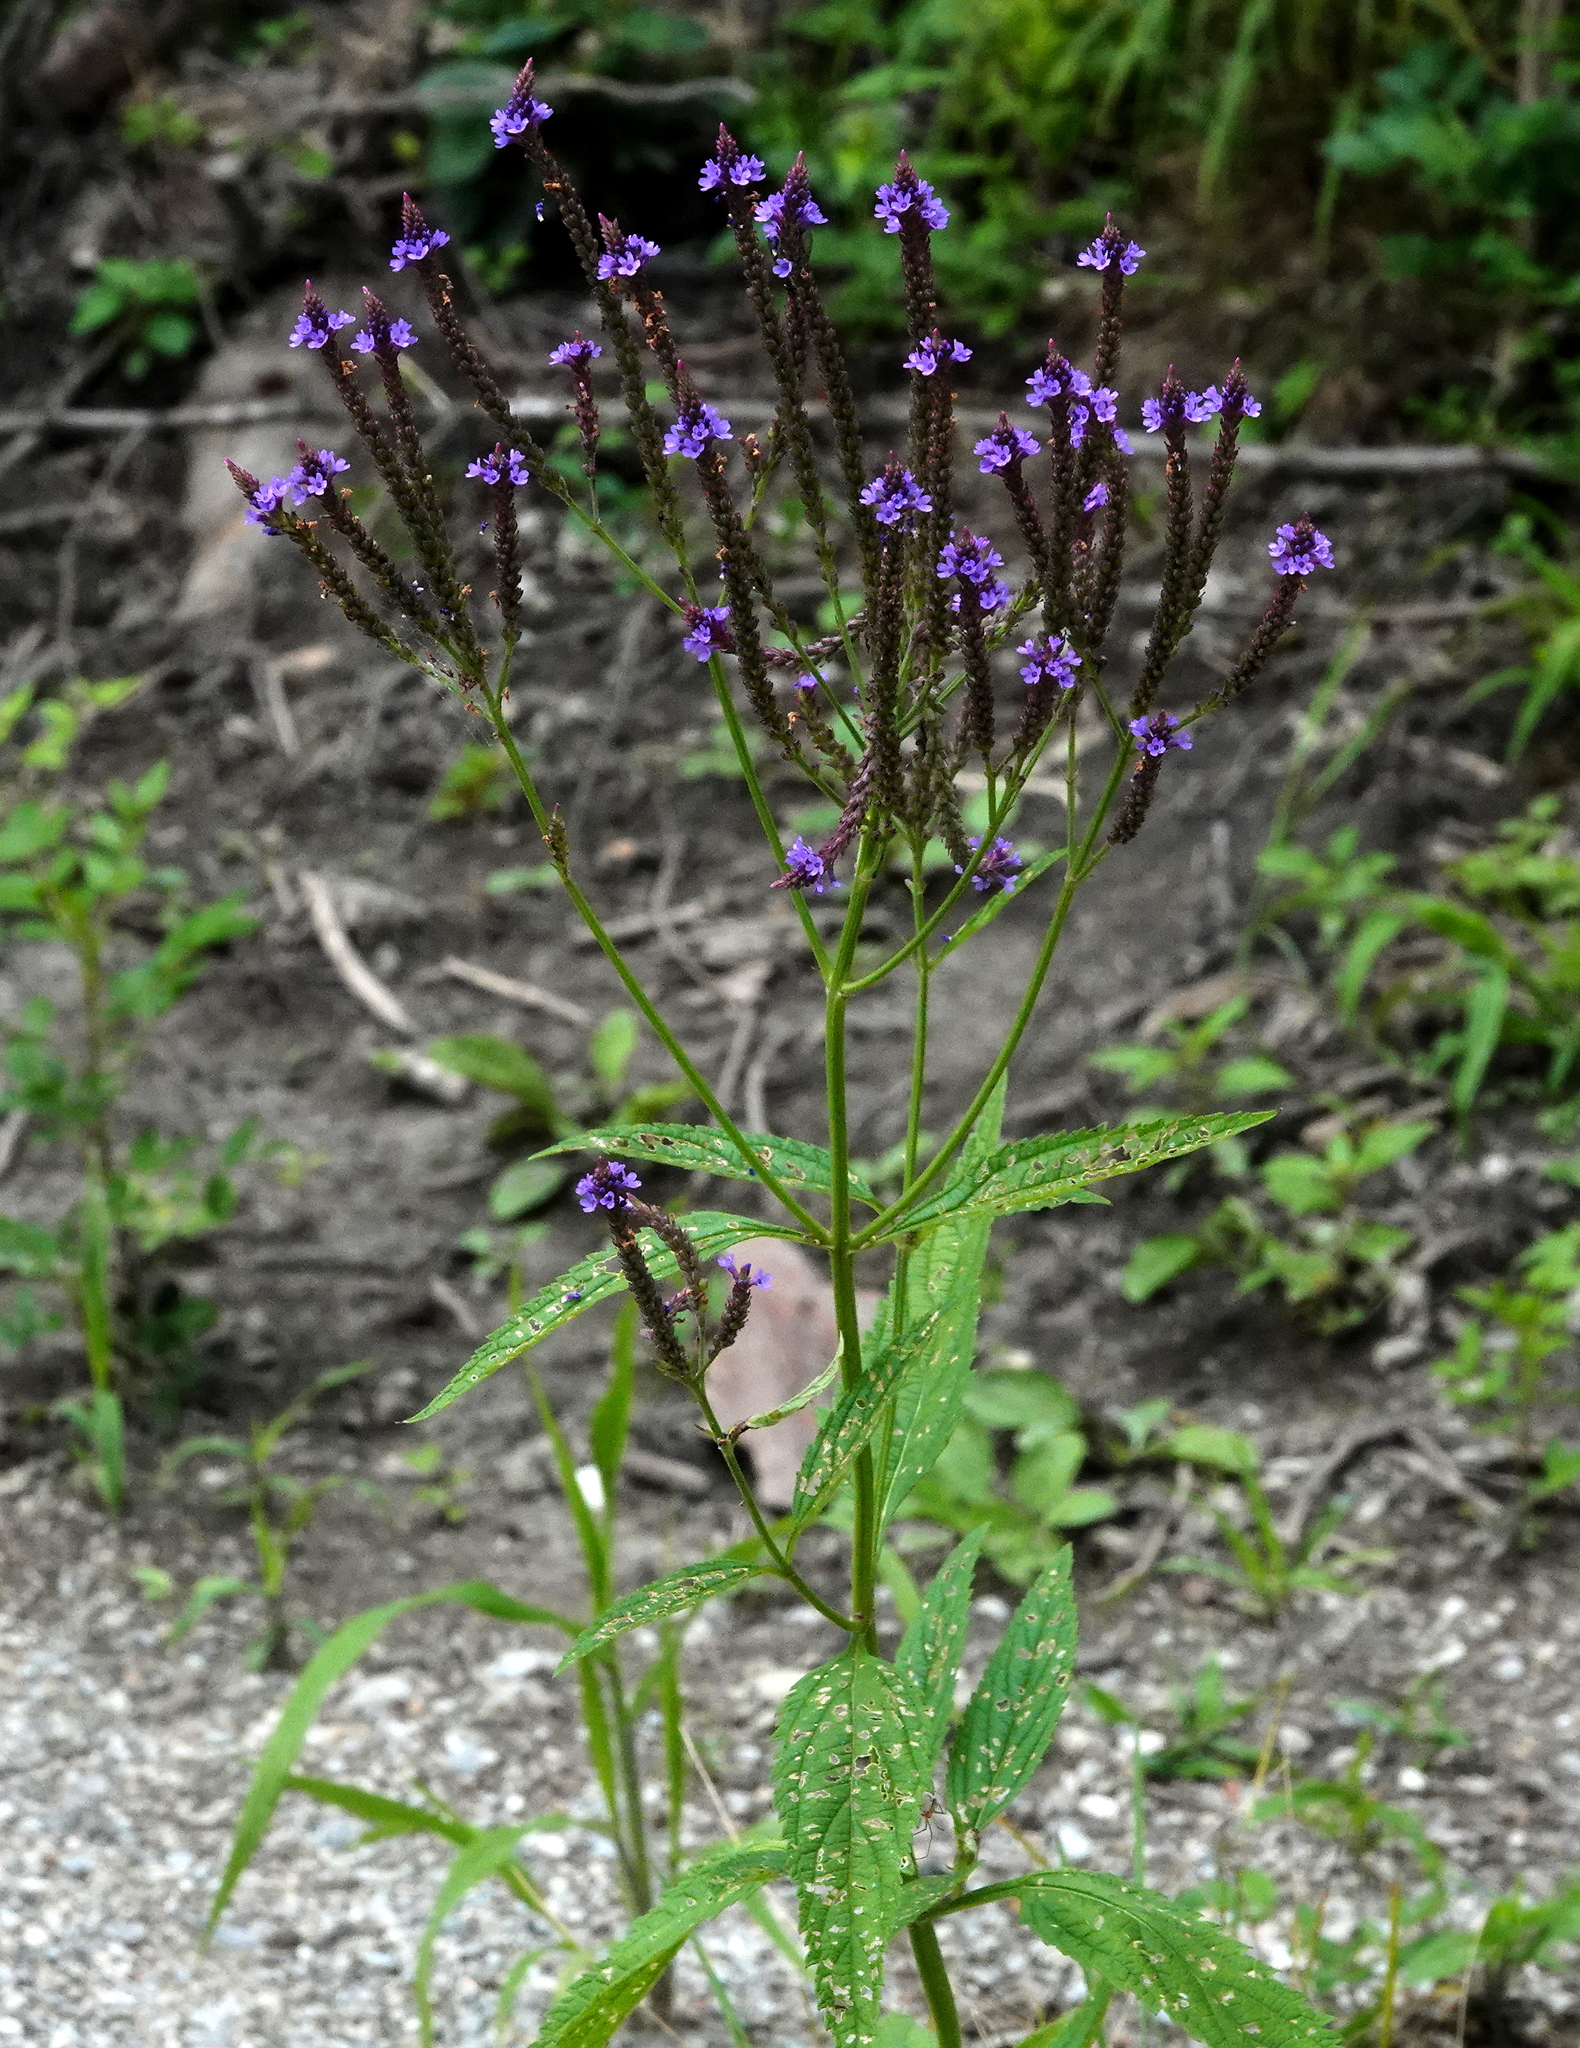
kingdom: Plantae
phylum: Tracheophyta
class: Magnoliopsida
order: Lamiales
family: Verbenaceae
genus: Verbena
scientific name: Verbena hastata
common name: American blue vervain
